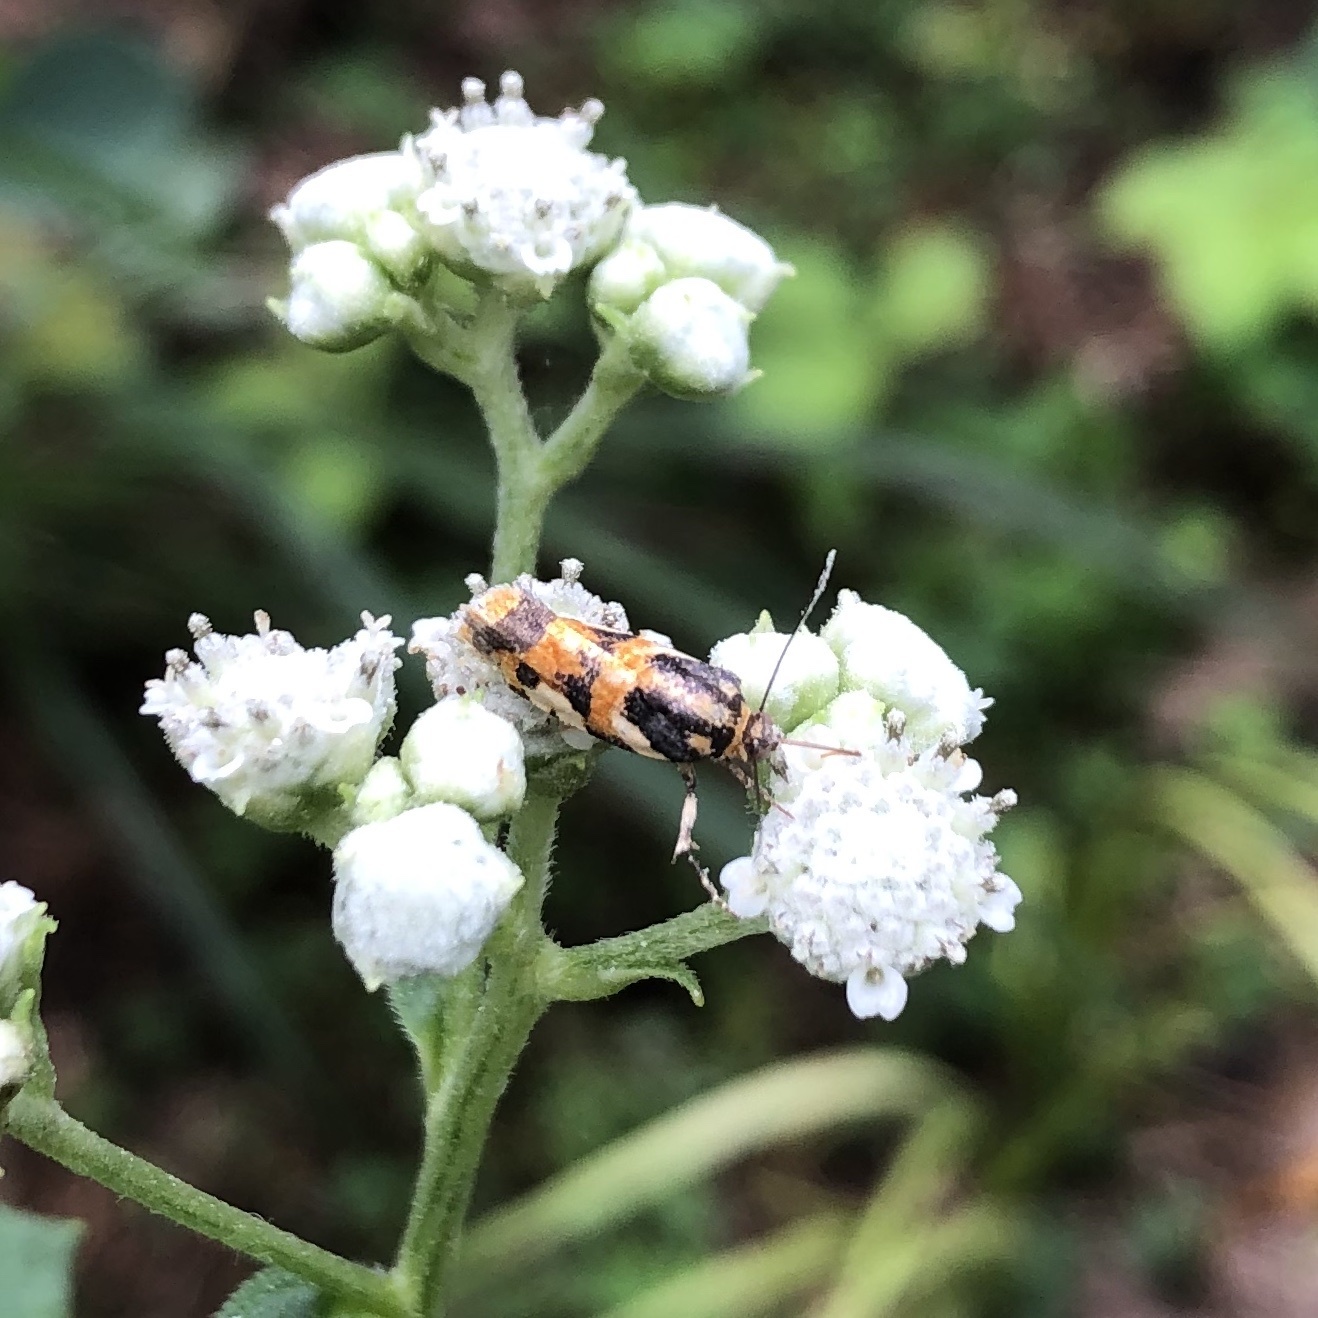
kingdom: Animalia
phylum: Arthropoda
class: Insecta
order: Lepidoptera
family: Noctuidae
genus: Acontia
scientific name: Acontia dama
